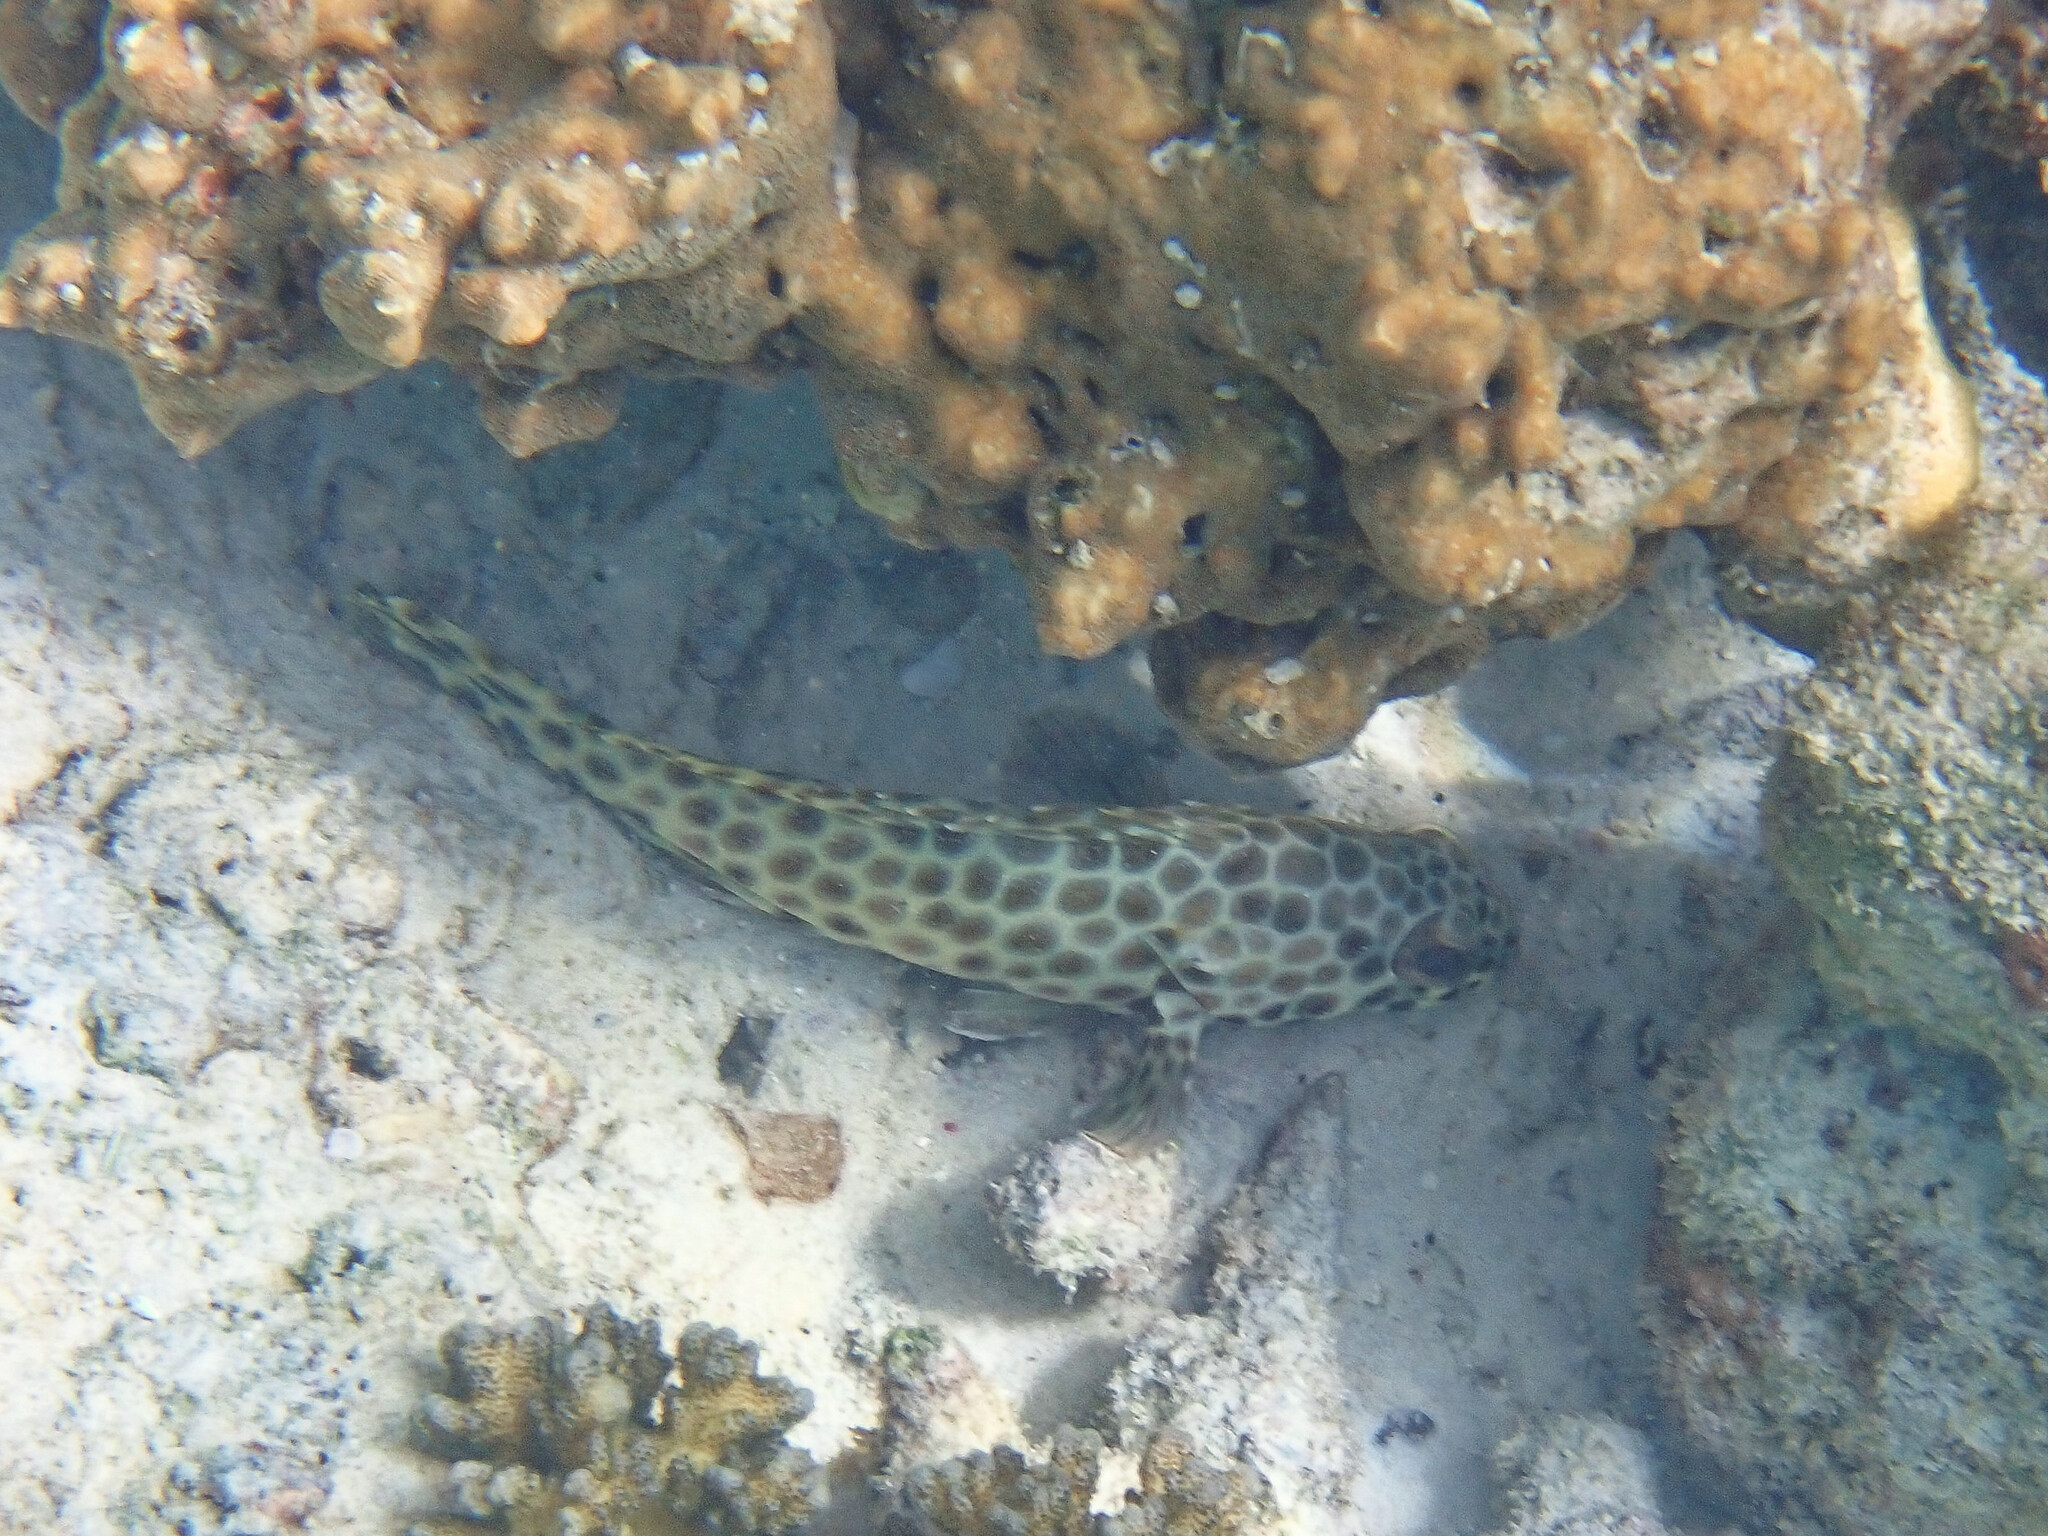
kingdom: Animalia
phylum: Chordata
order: Perciformes
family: Serranidae
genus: Epinephelus
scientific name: Epinephelus quoyanus
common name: Longfin grouper
